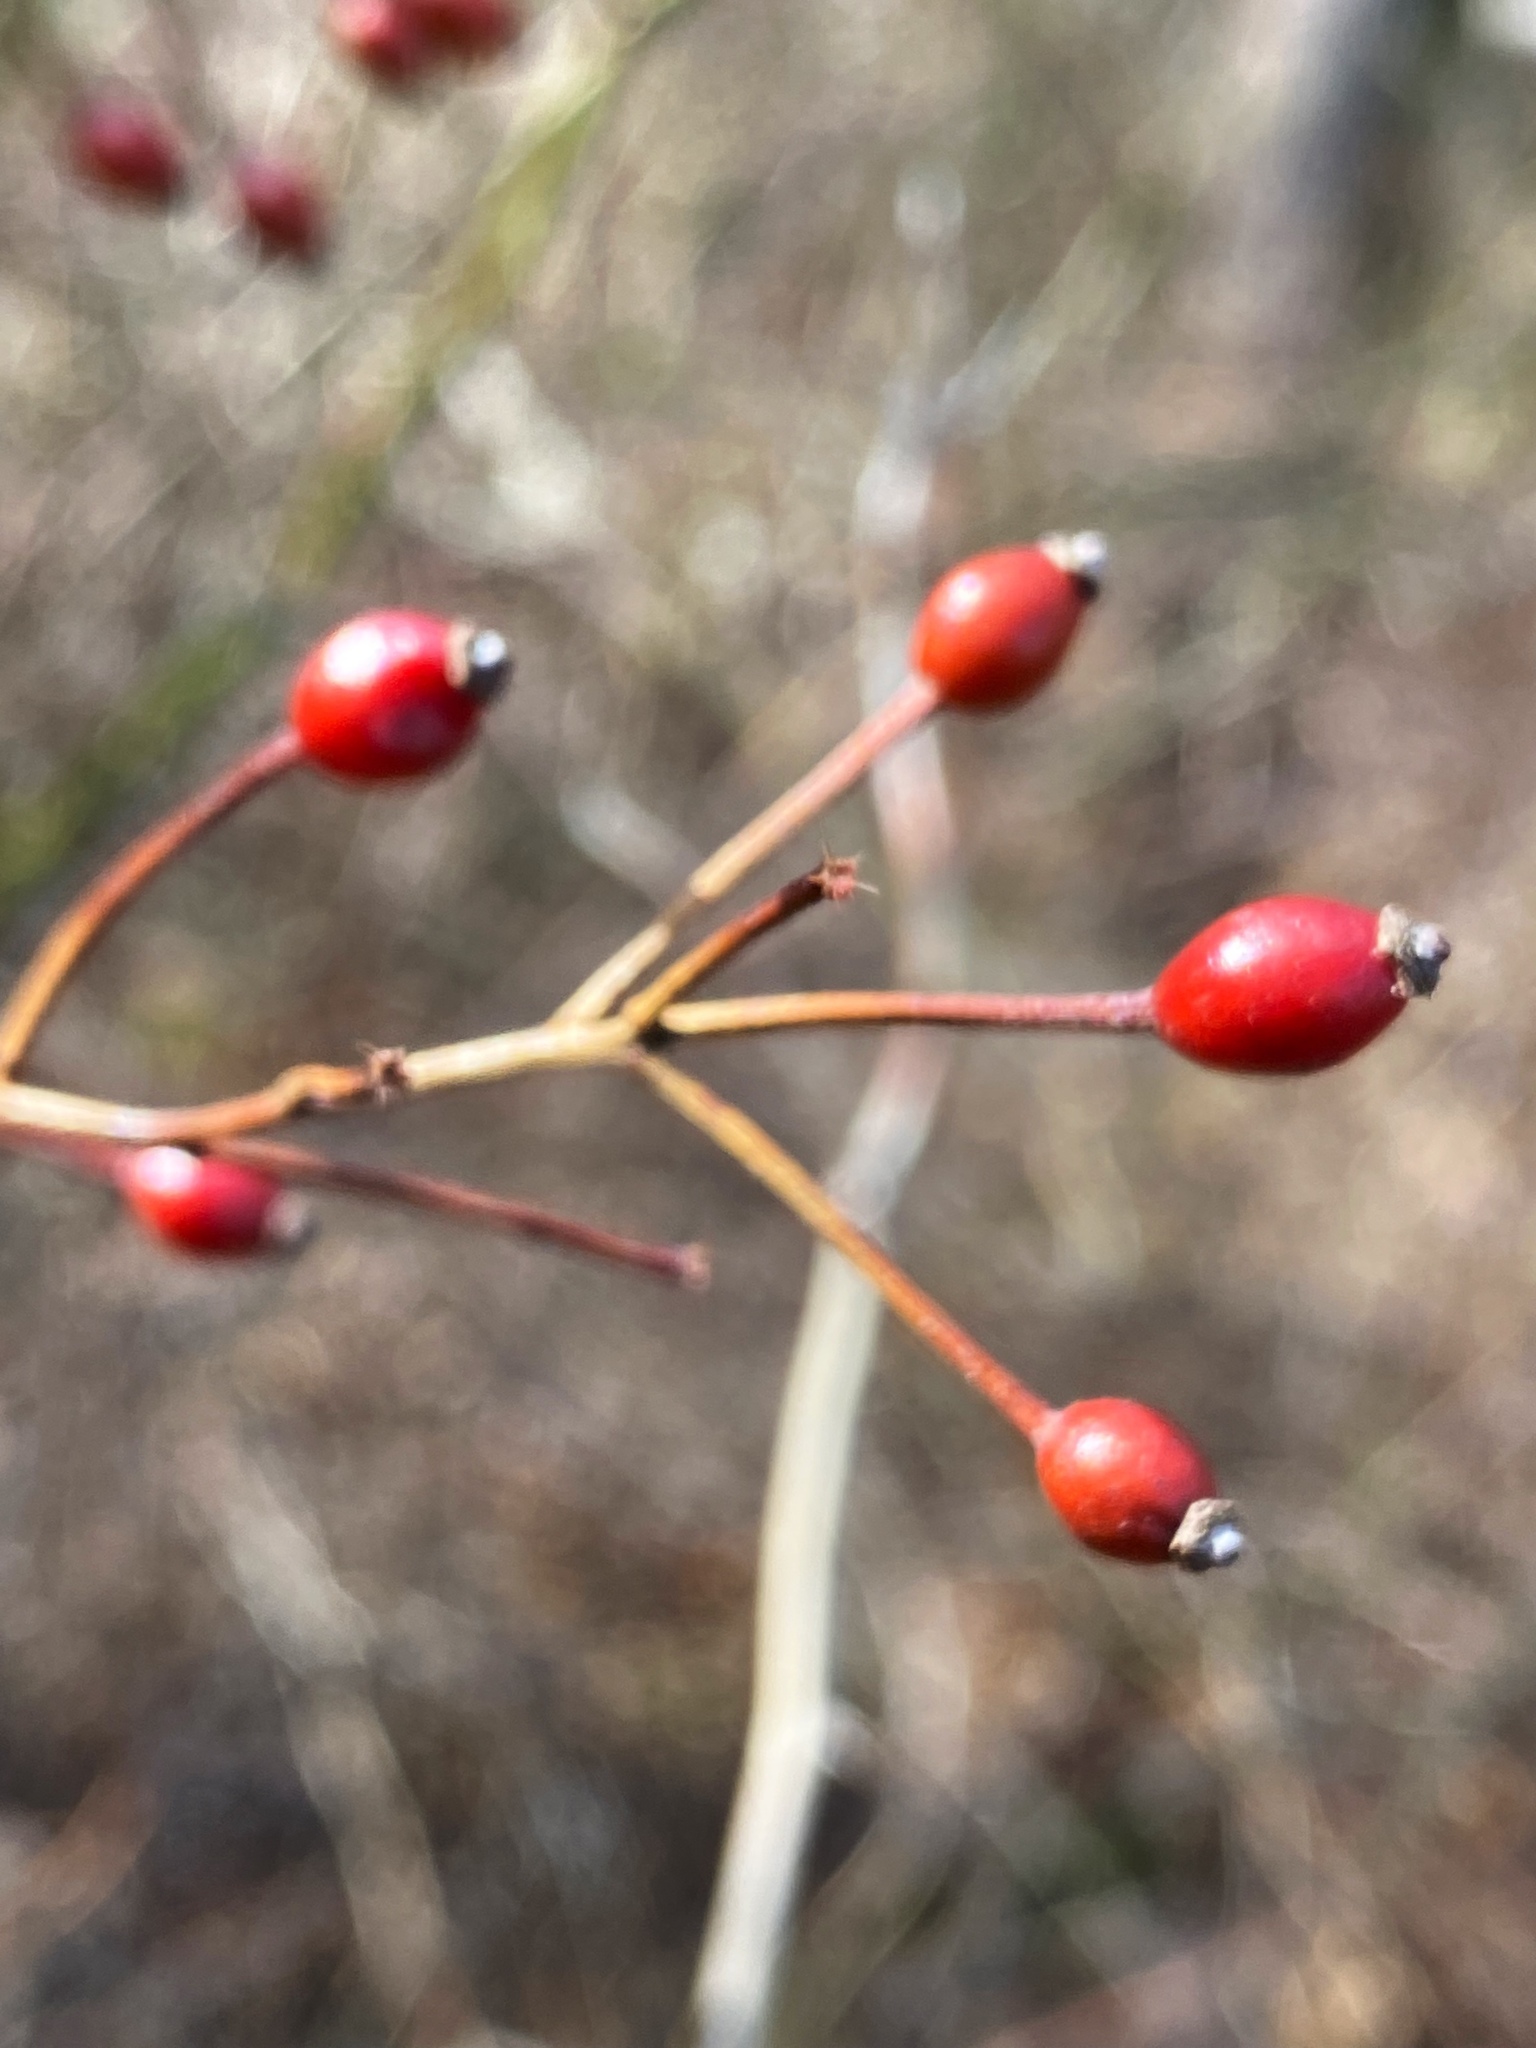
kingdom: Plantae
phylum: Tracheophyta
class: Magnoliopsida
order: Rosales
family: Rosaceae
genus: Rosa
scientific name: Rosa multiflora
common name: Multiflora rose
